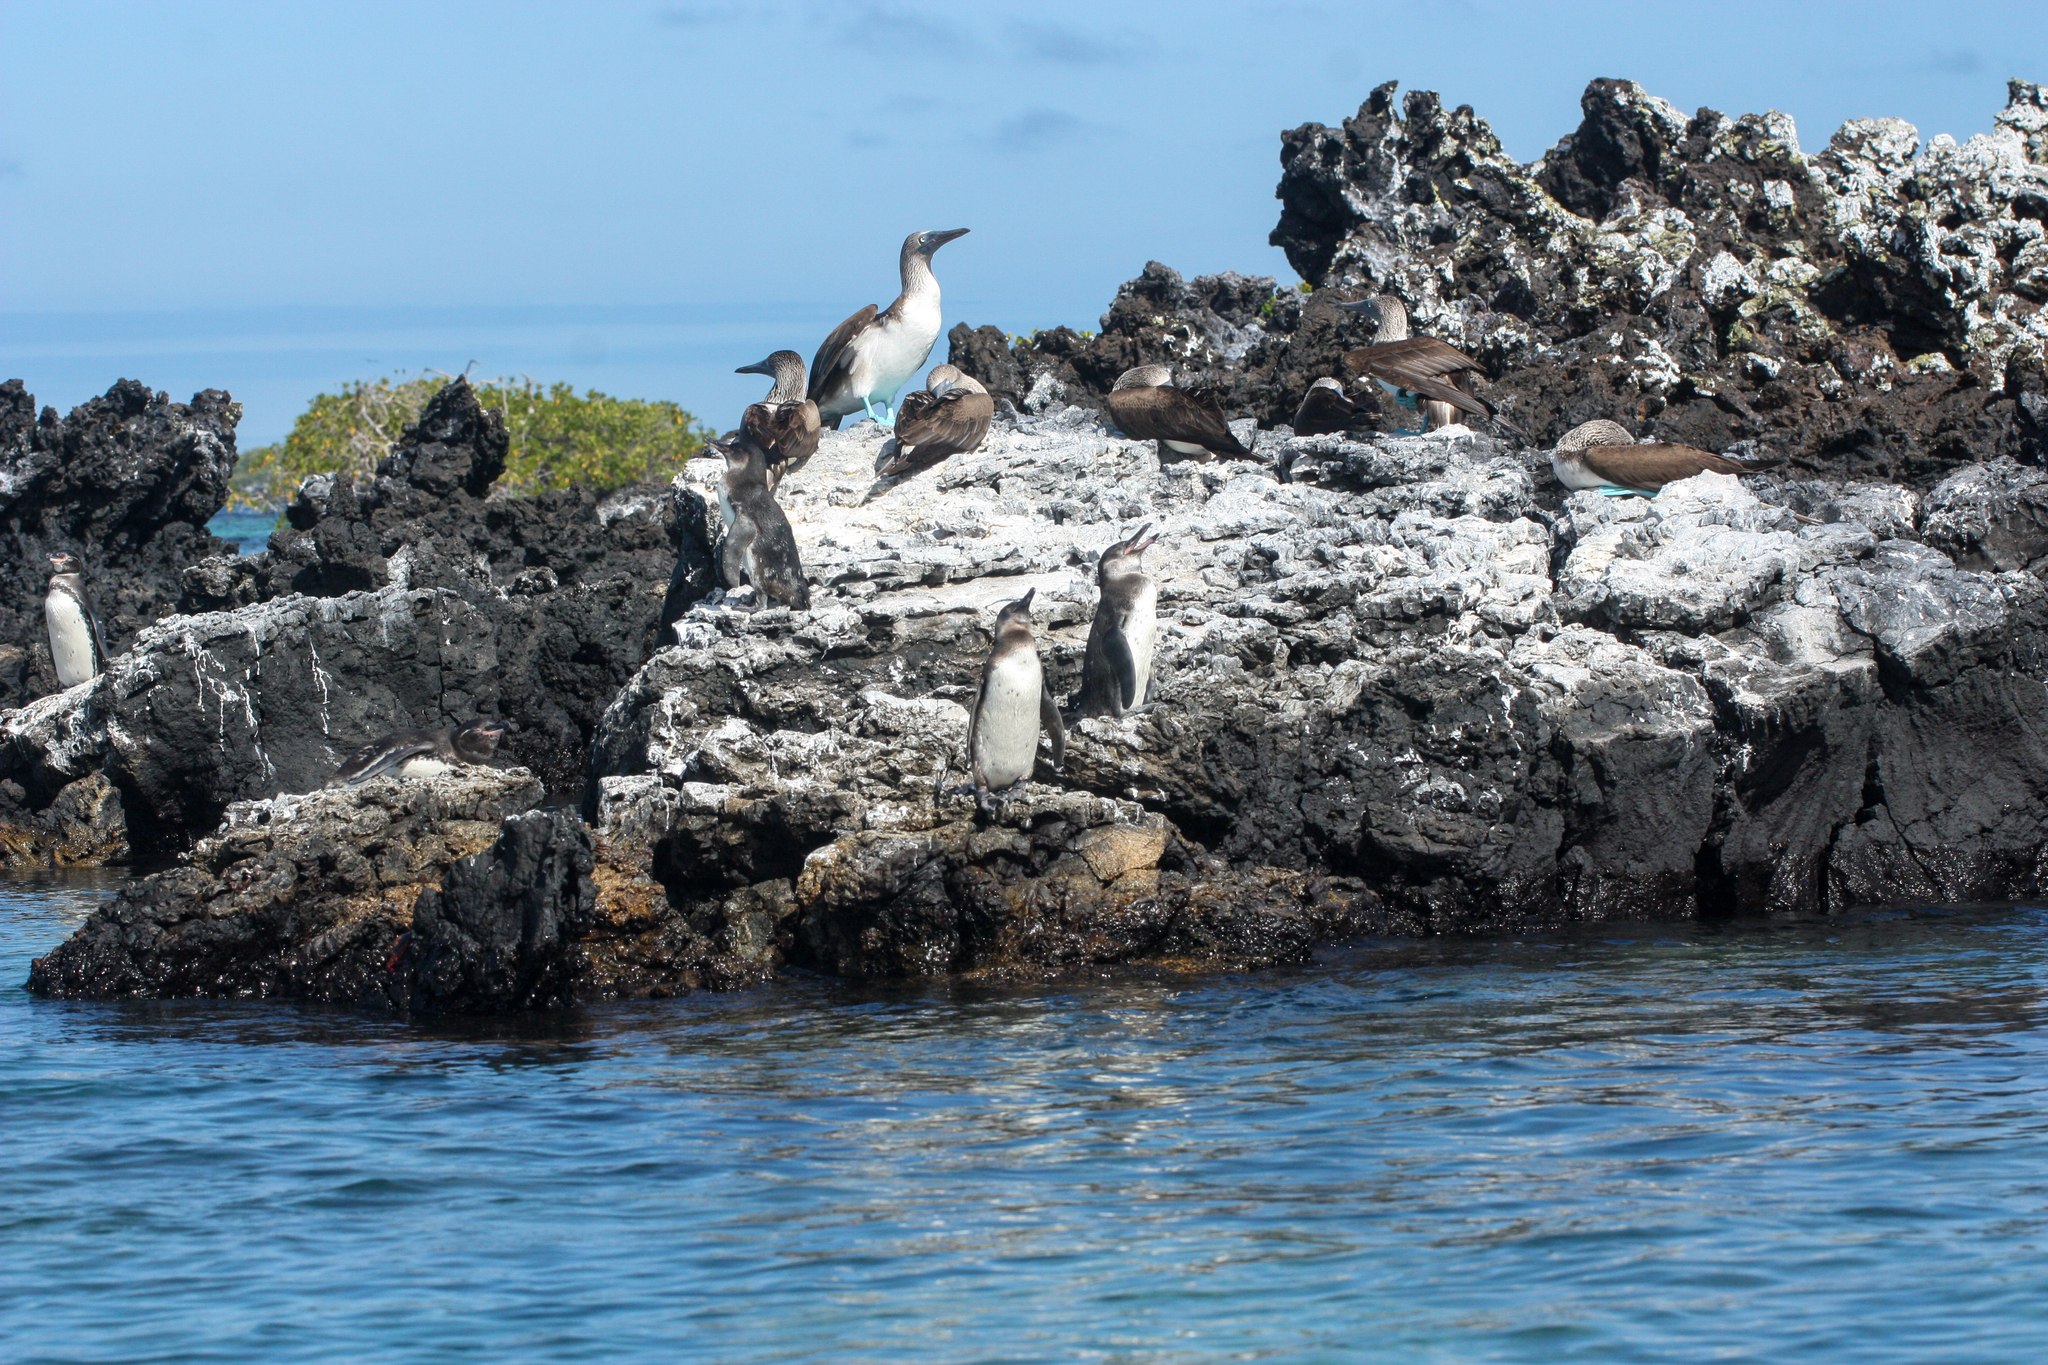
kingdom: Animalia
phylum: Chordata
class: Aves
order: Sphenisciformes
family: Spheniscidae
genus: Spheniscus
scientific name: Spheniscus mendiculus
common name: Galapagos penguin
